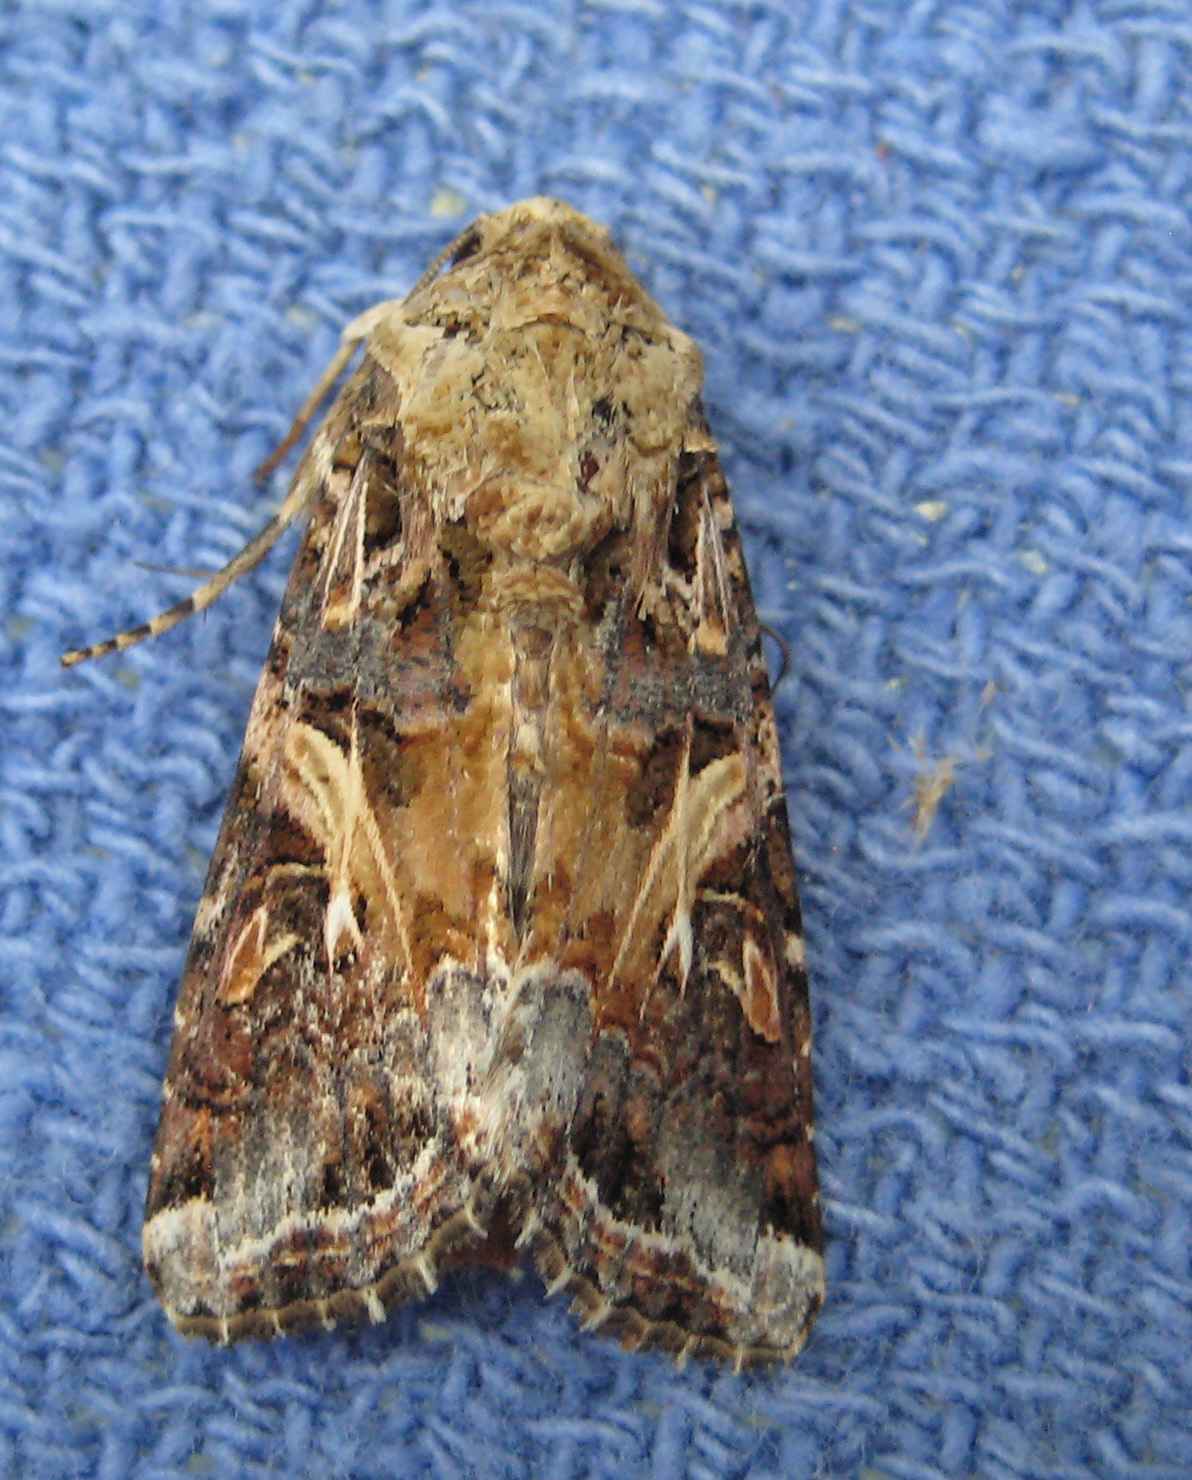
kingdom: Animalia
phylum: Arthropoda
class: Insecta
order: Lepidoptera
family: Noctuidae
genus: Spodoptera
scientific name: Spodoptera ornithogalli
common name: Yellow-striped armyworm
